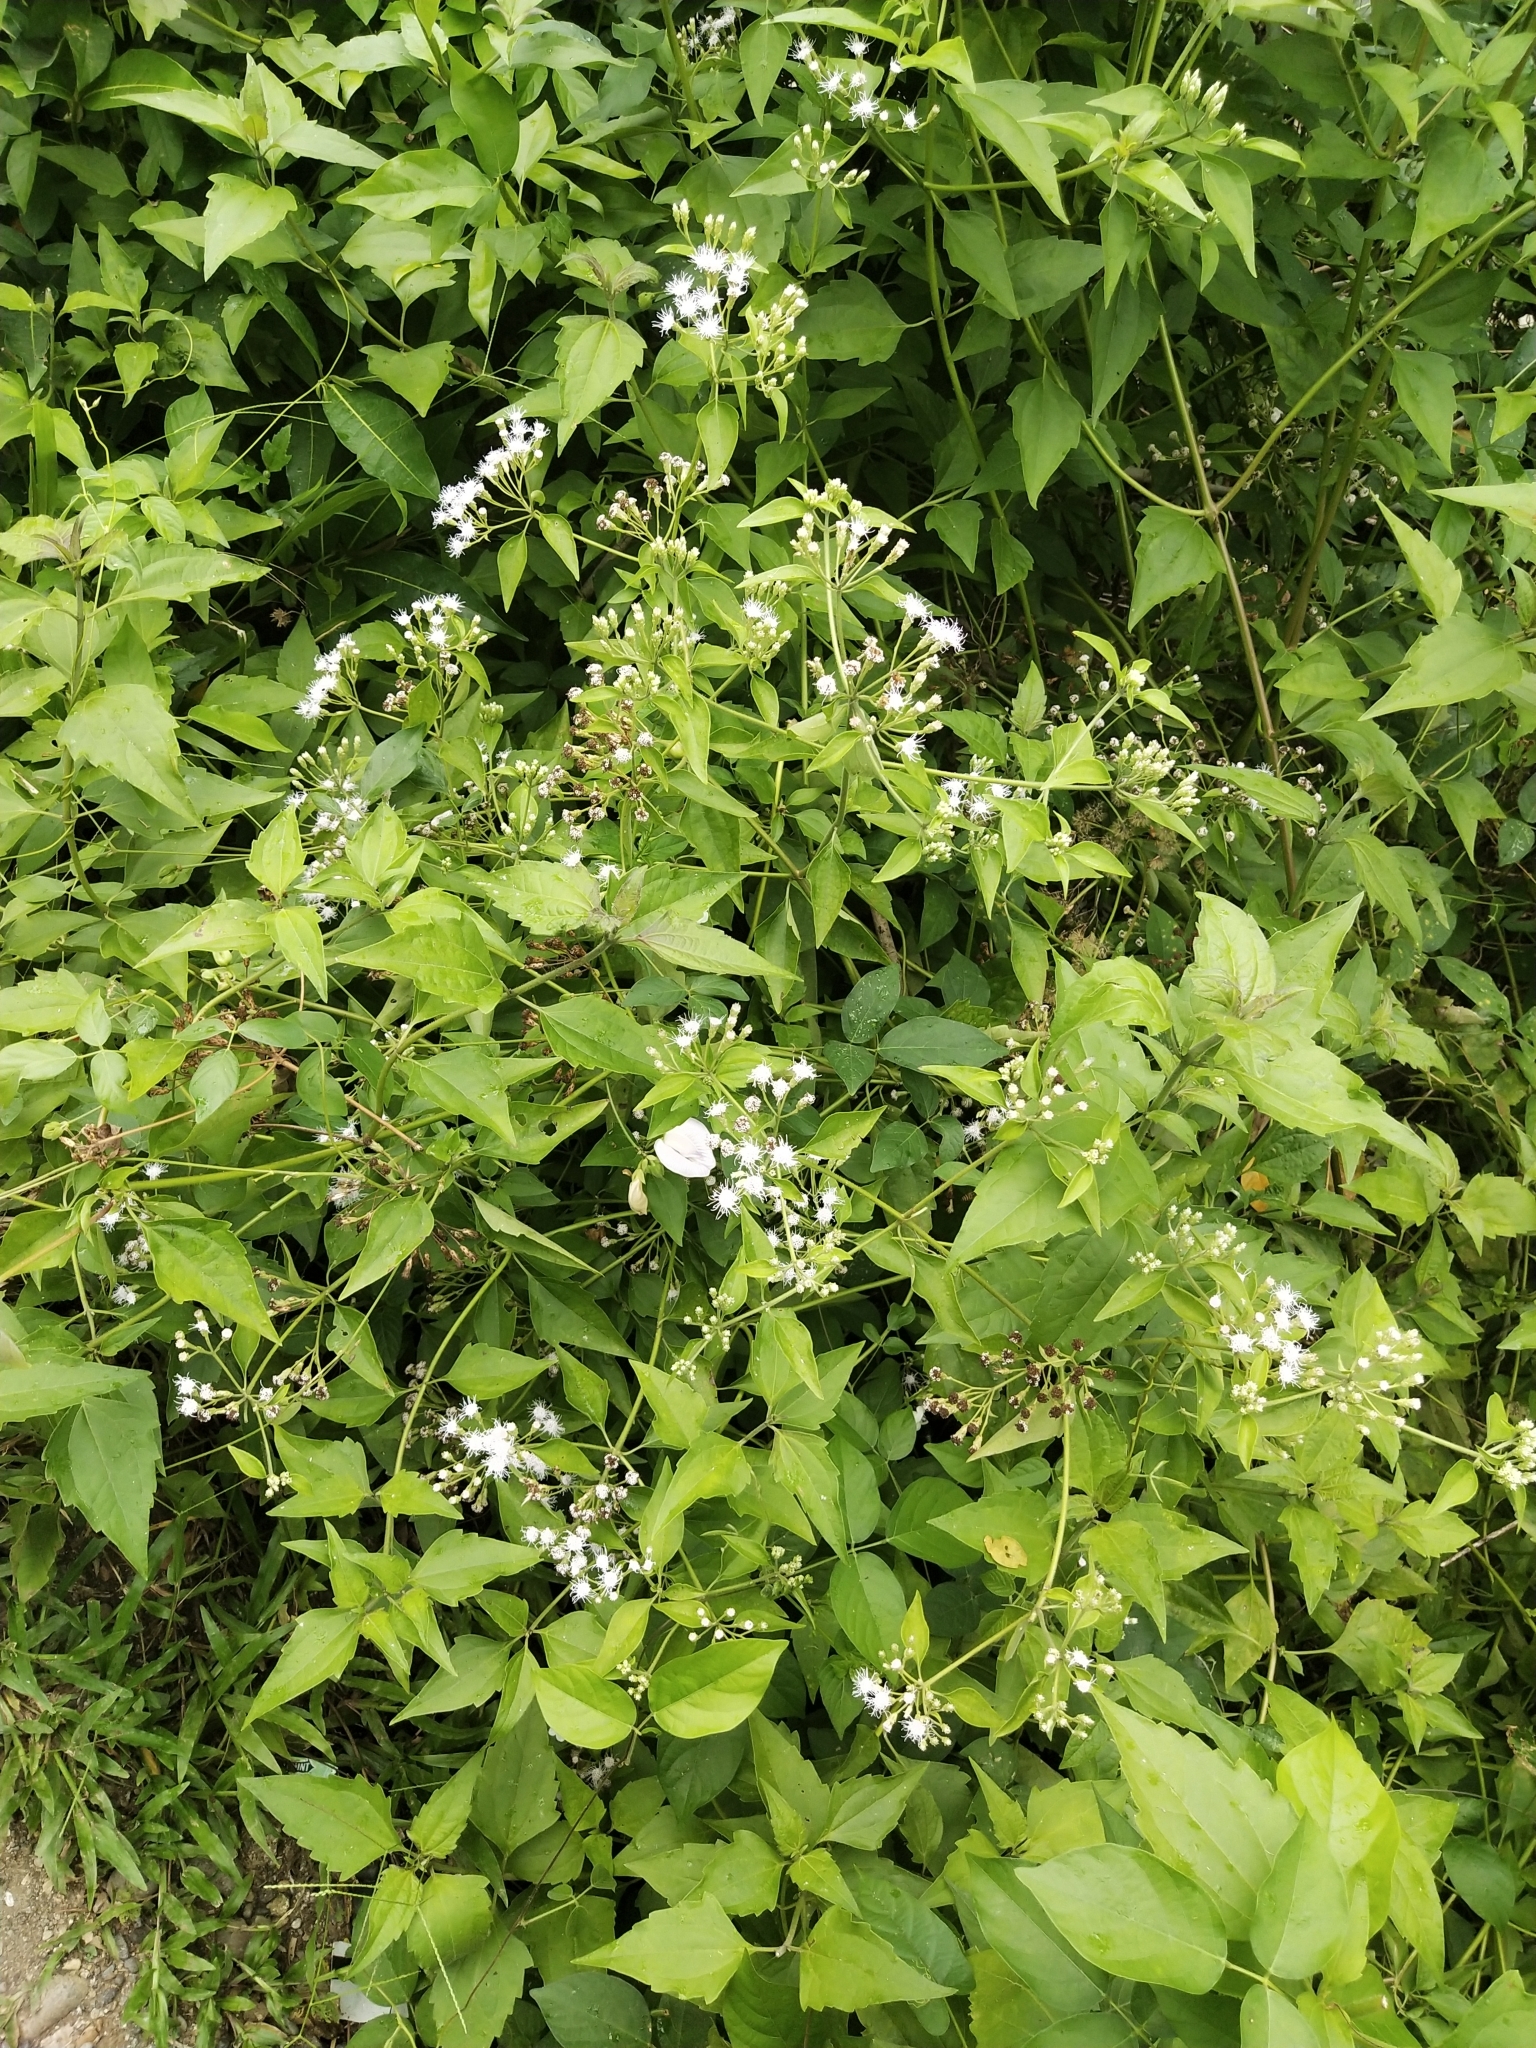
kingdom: Plantae
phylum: Tracheophyta
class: Magnoliopsida
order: Asterales
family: Asteraceae
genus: Chromolaena
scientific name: Chromolaena odorata
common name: Siamweed
